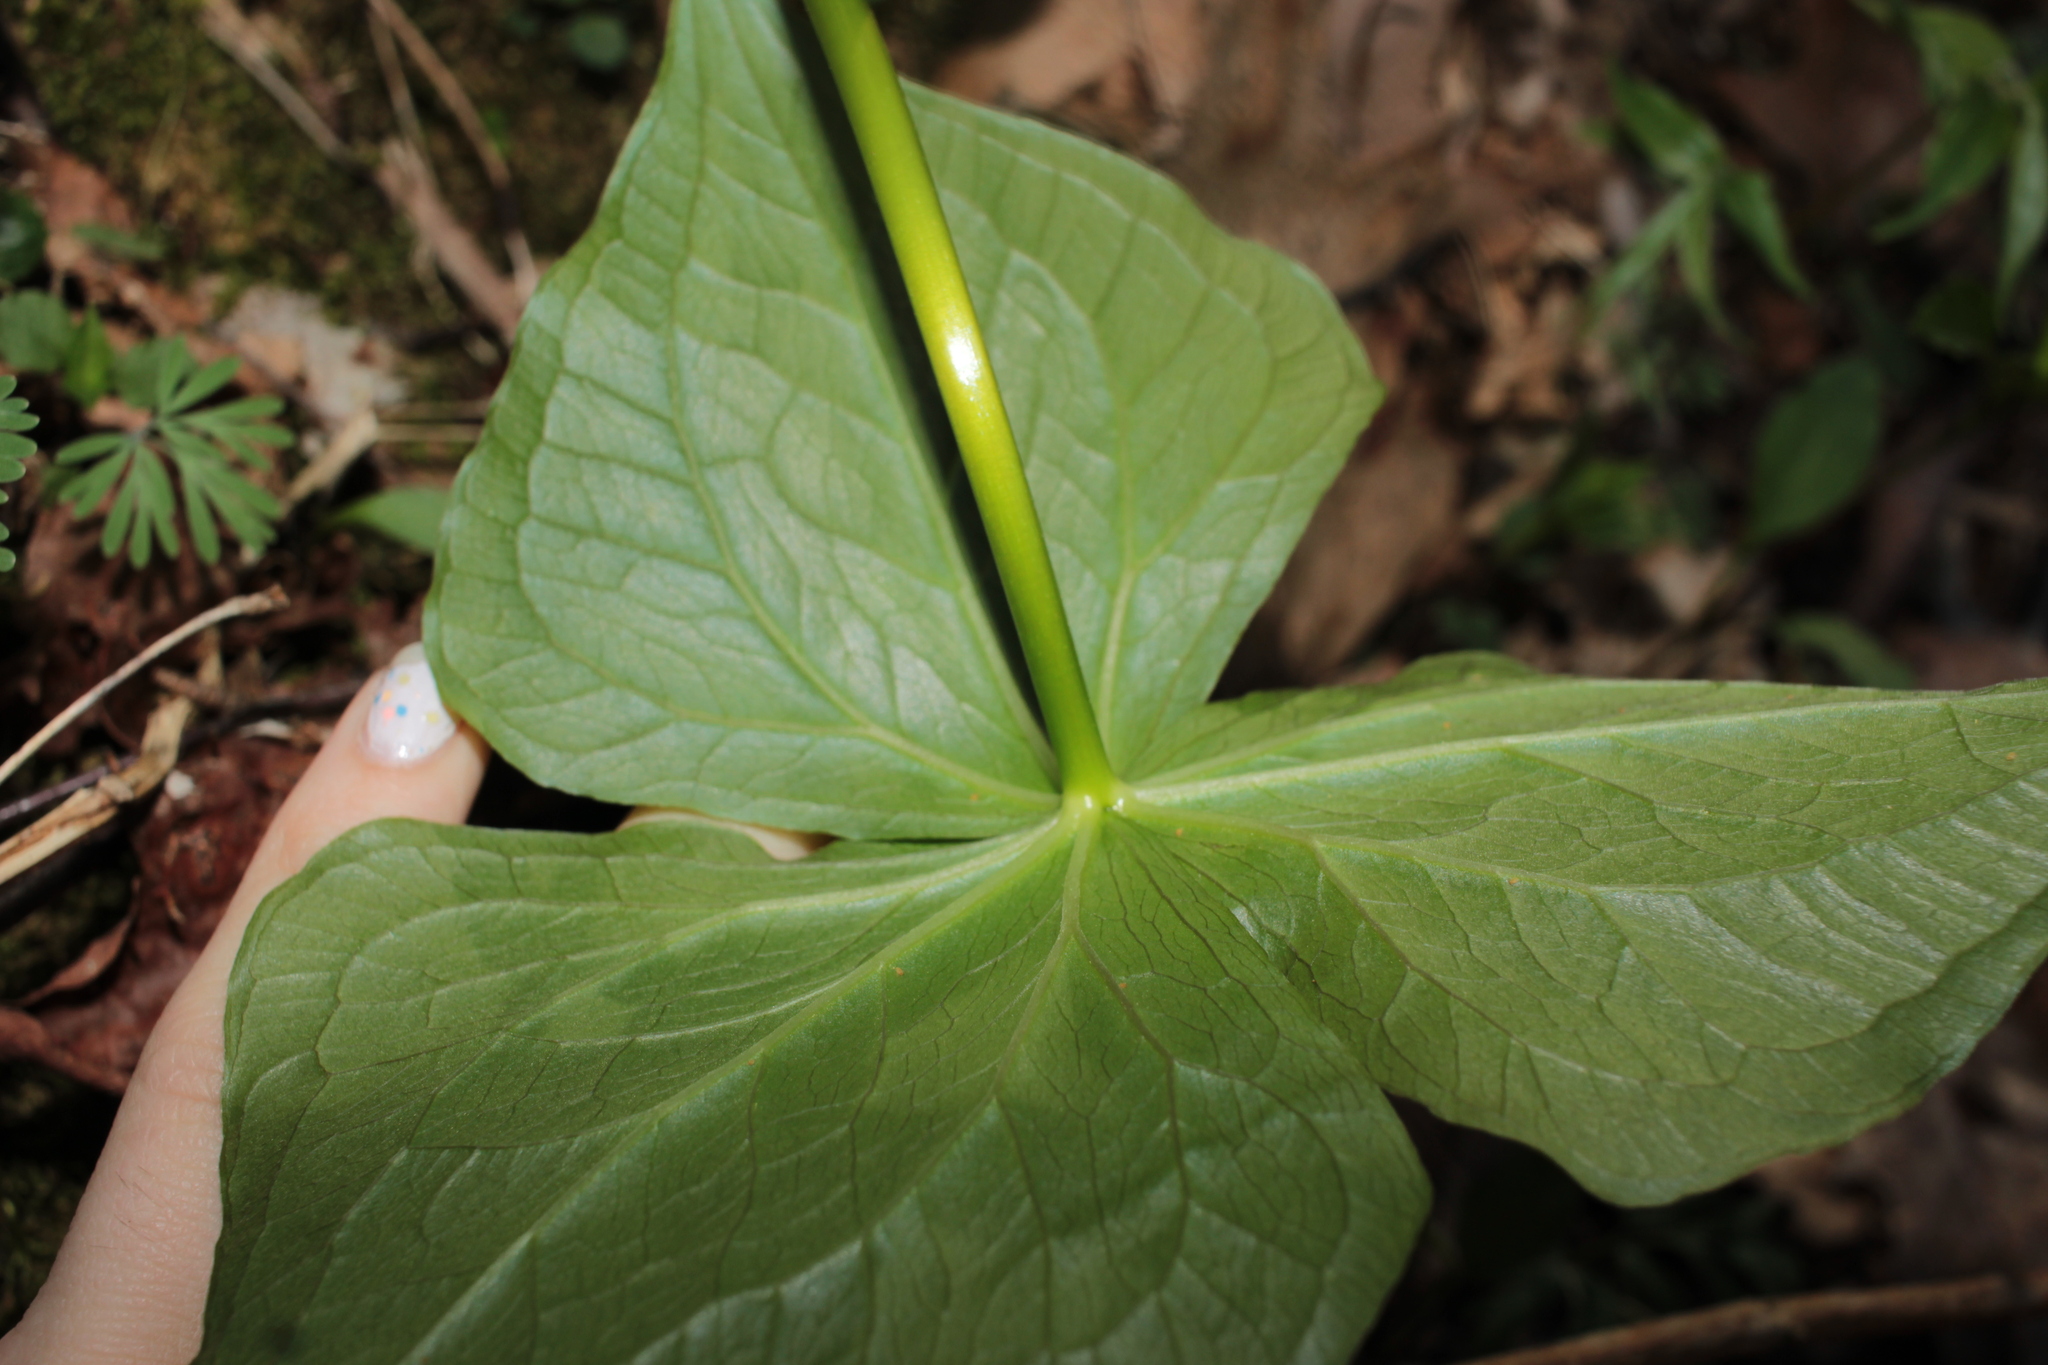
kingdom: Plantae
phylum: Tracheophyta
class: Liliopsida
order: Liliales
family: Melanthiaceae
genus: Trillium
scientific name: Trillium erectum
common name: Purple trillium
